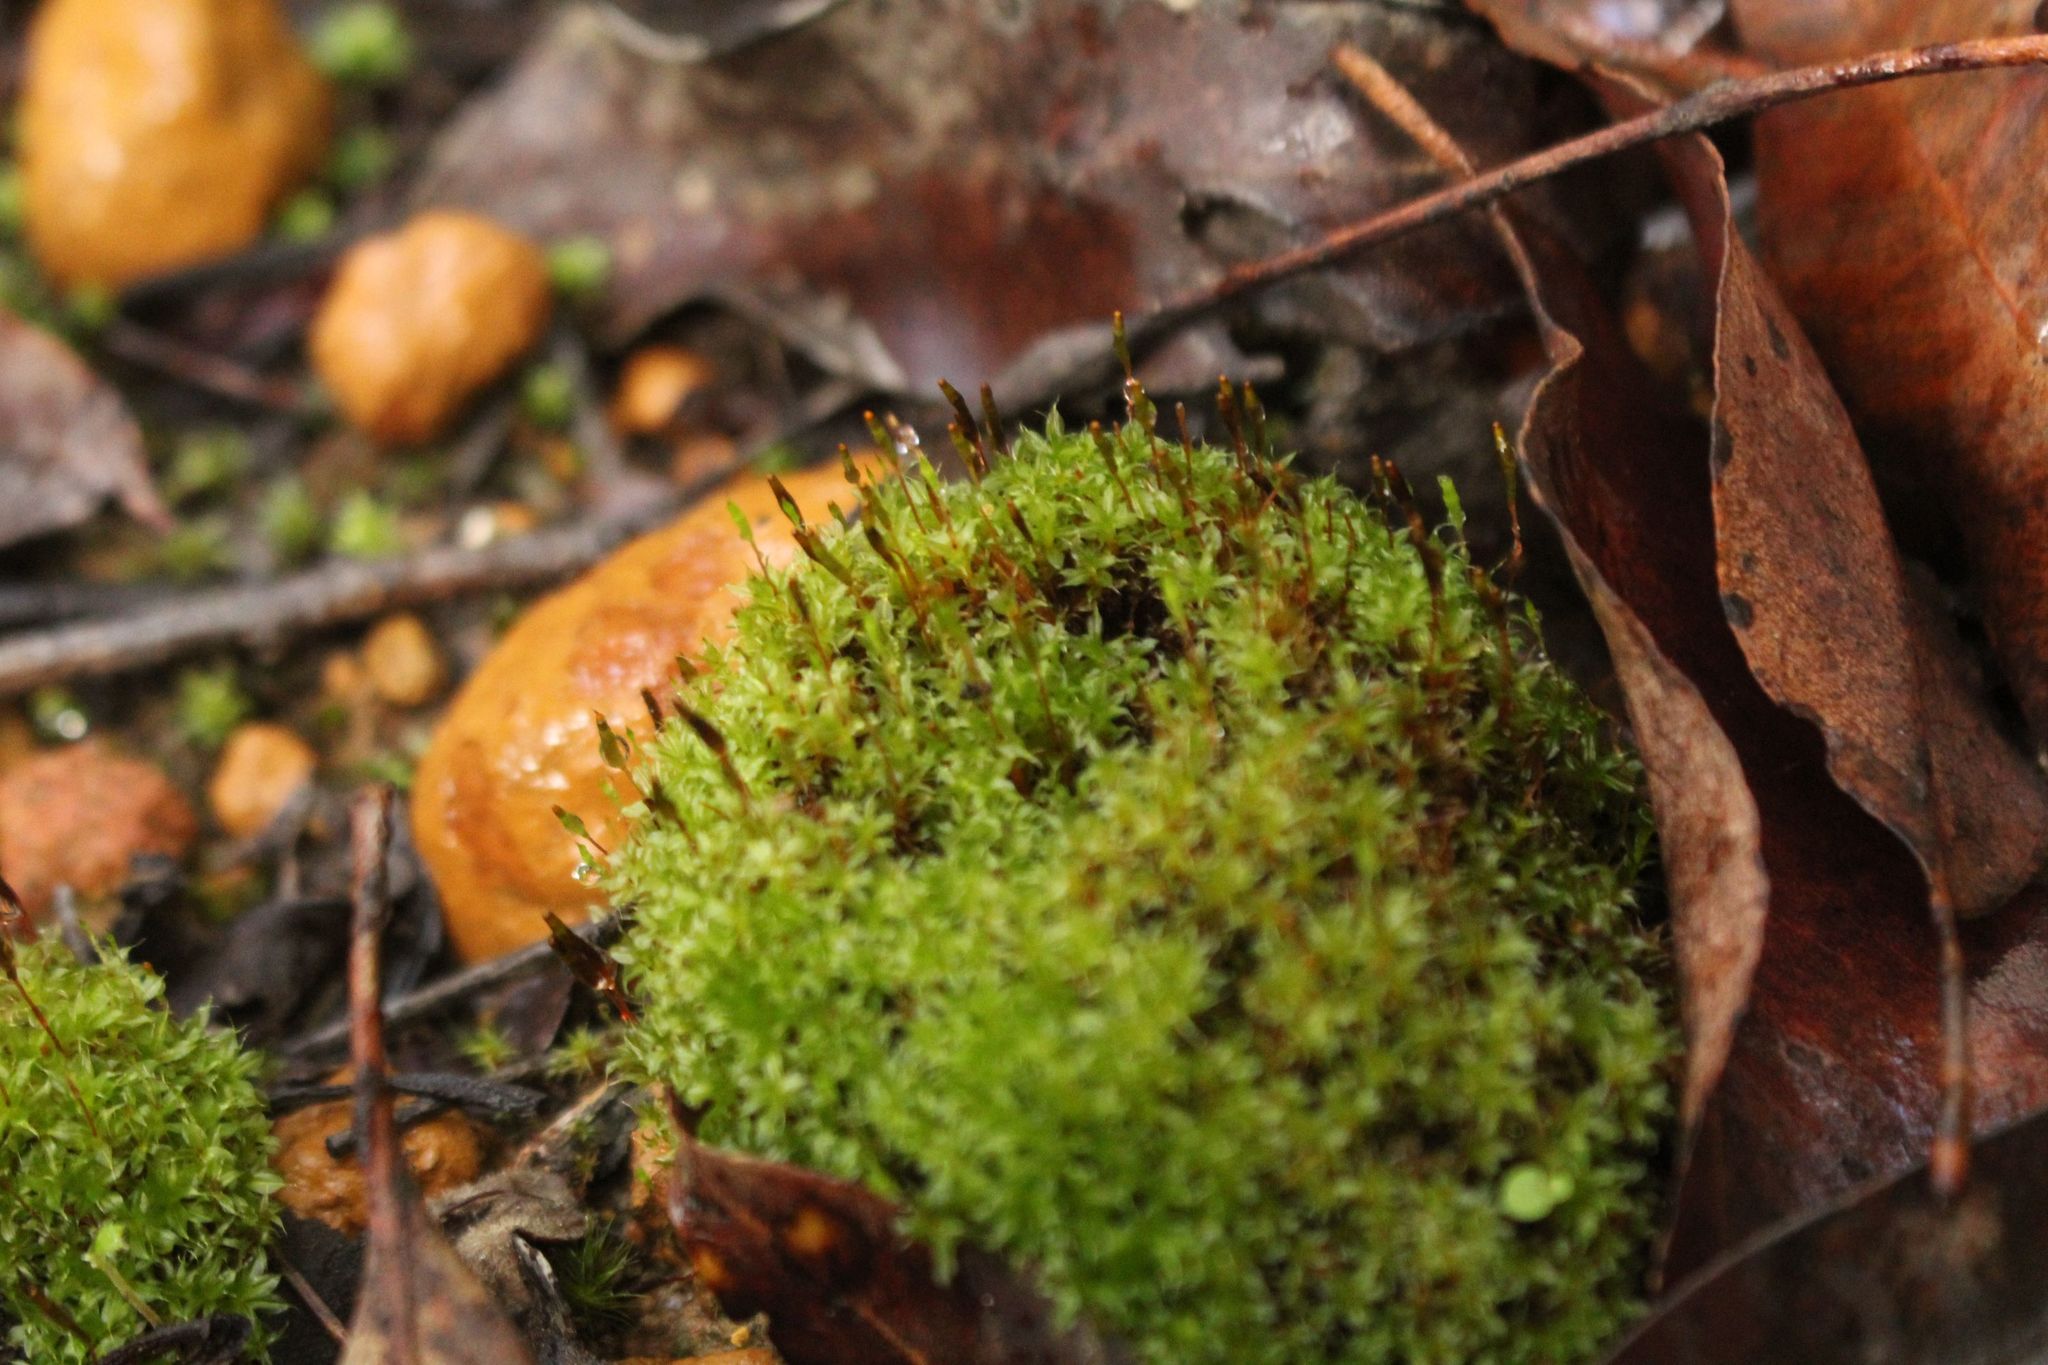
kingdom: Plantae
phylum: Bryophyta
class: Bryopsida
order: Splachnales
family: Splachnaceae
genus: Tayloria
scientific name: Tayloria octoblephara
